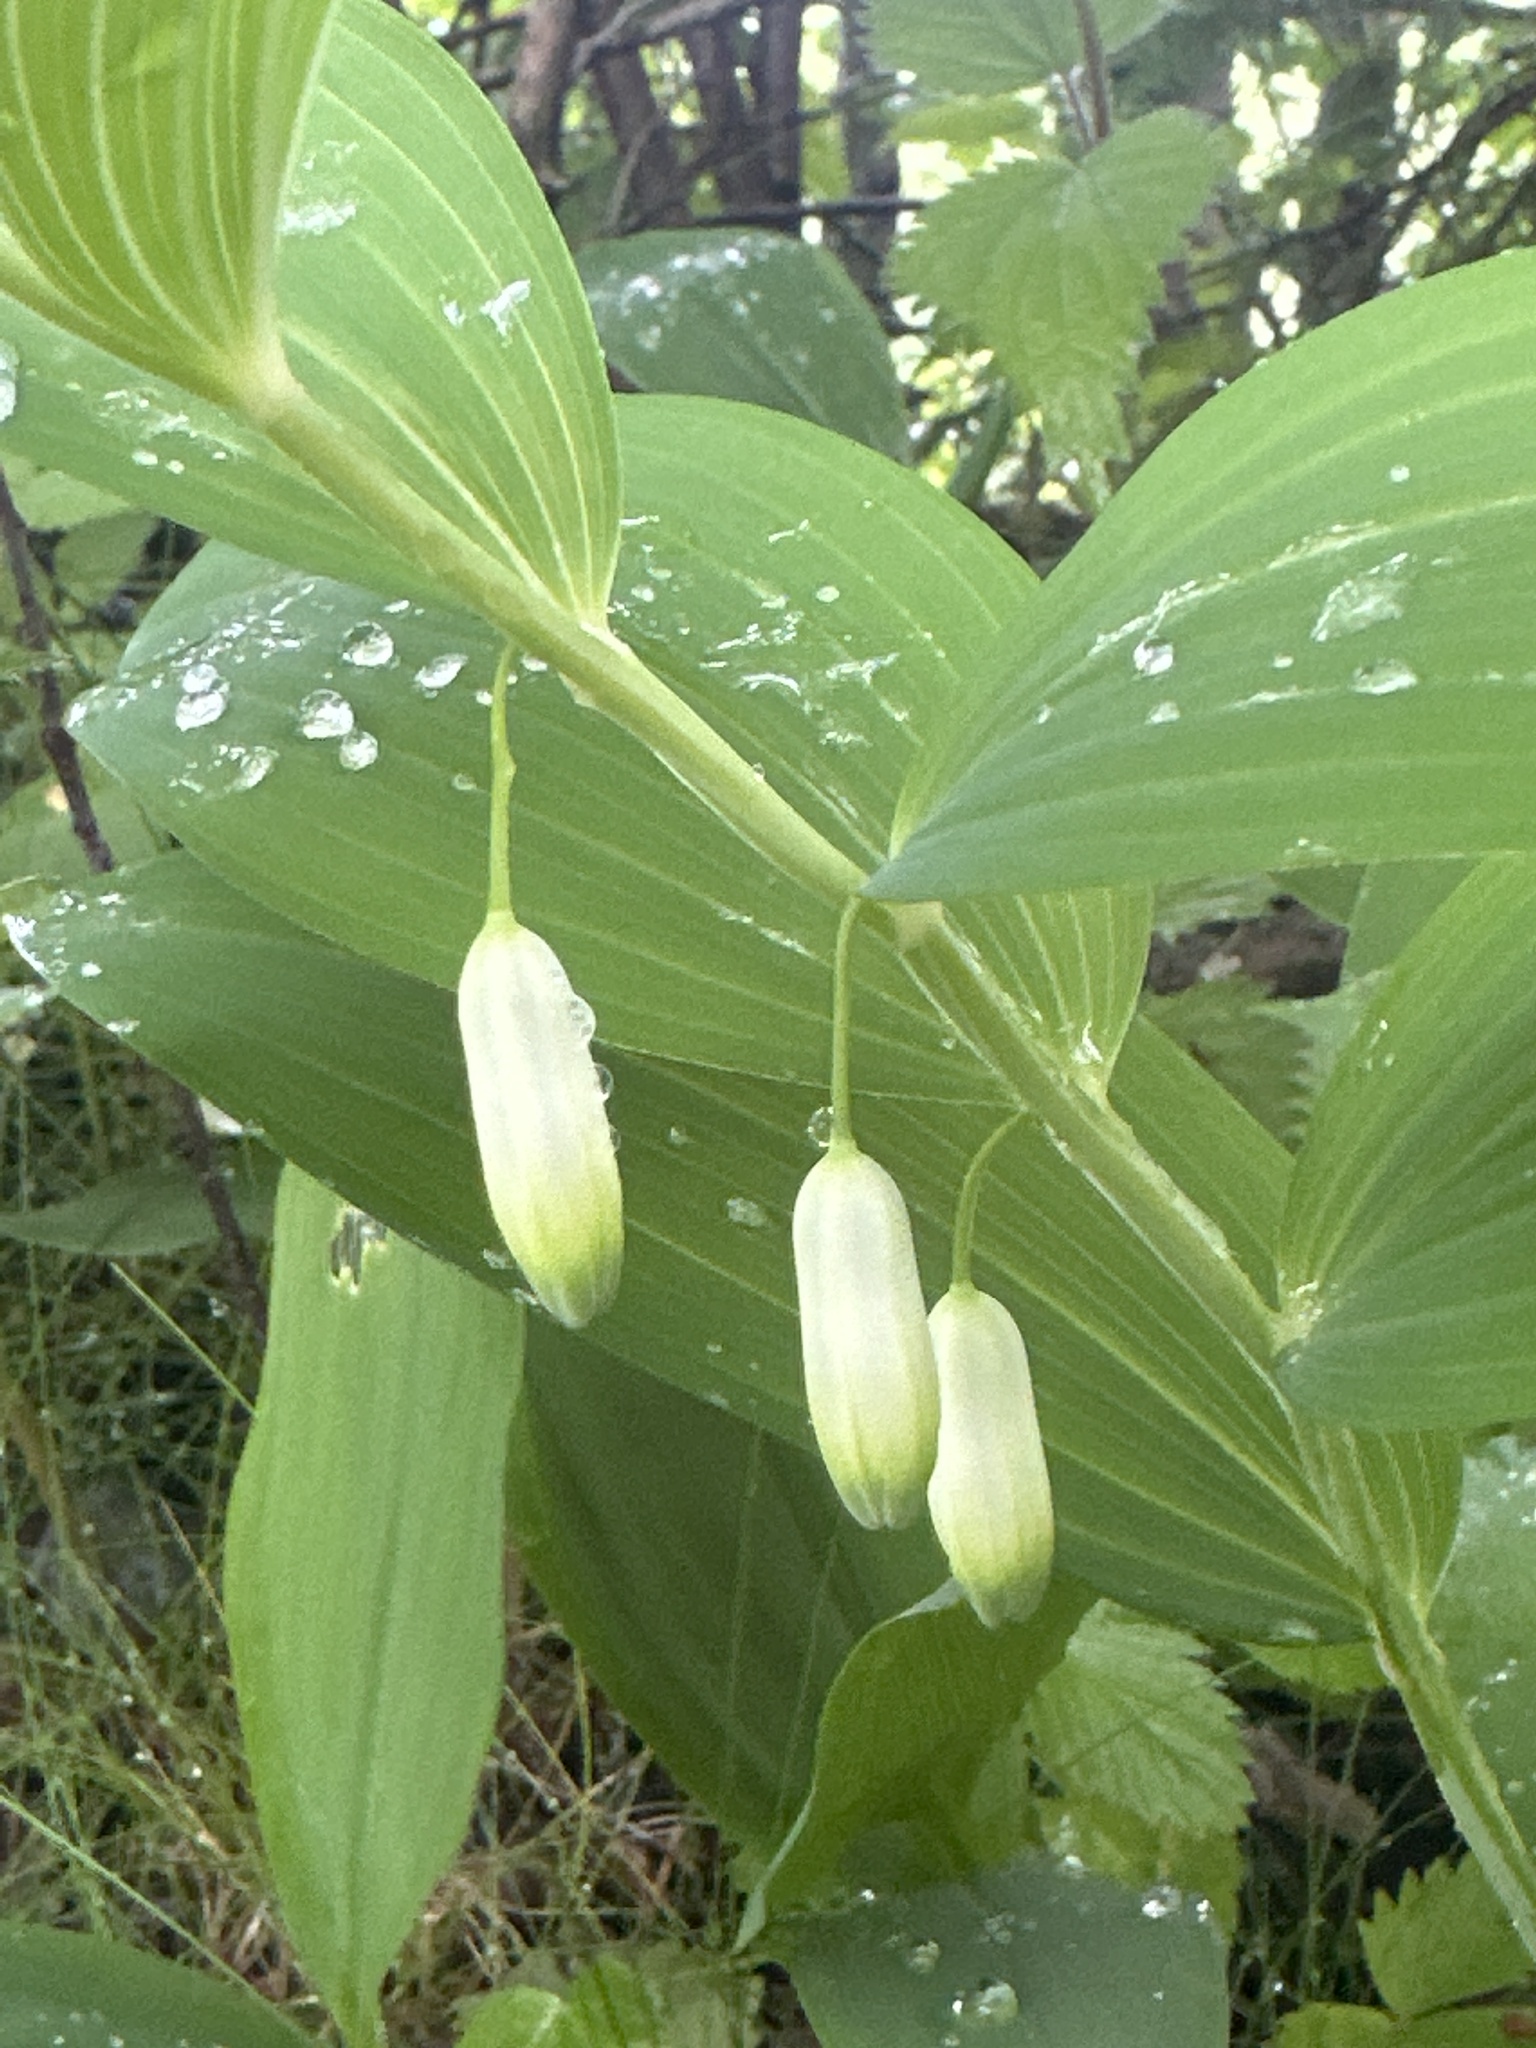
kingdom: Plantae
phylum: Tracheophyta
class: Liliopsida
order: Asparagales
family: Asparagaceae
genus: Polygonatum
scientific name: Polygonatum odoratum
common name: Angular solomon's-seal
